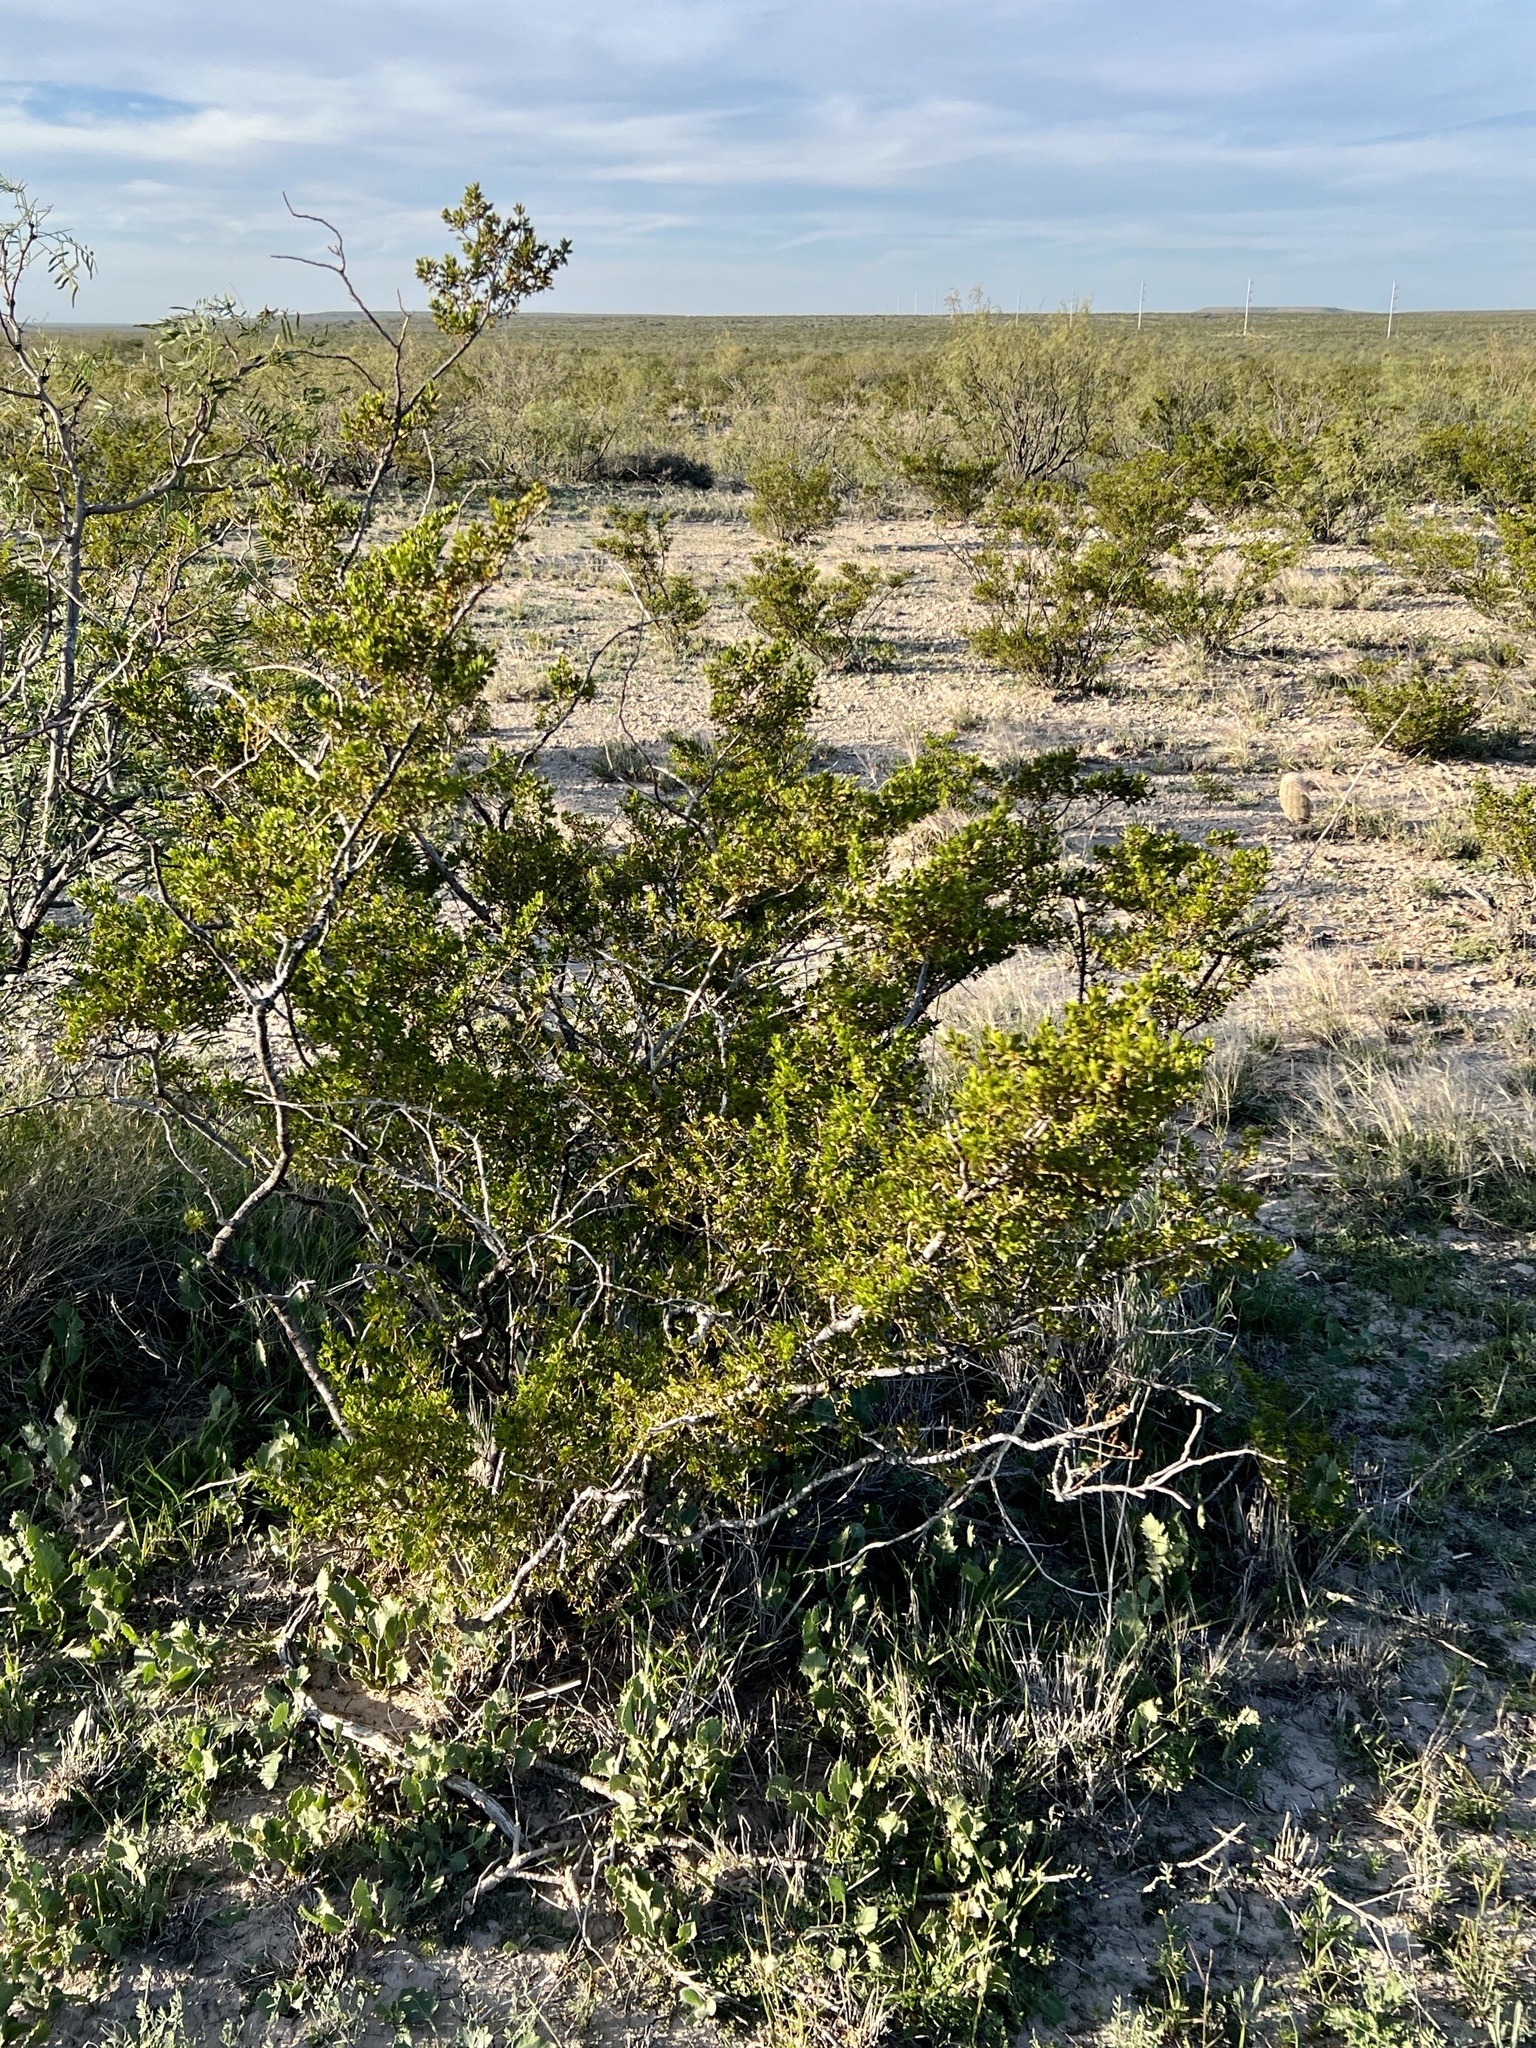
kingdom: Plantae
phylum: Tracheophyta
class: Magnoliopsida
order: Zygophyllales
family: Zygophyllaceae
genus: Larrea
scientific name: Larrea tridentata
